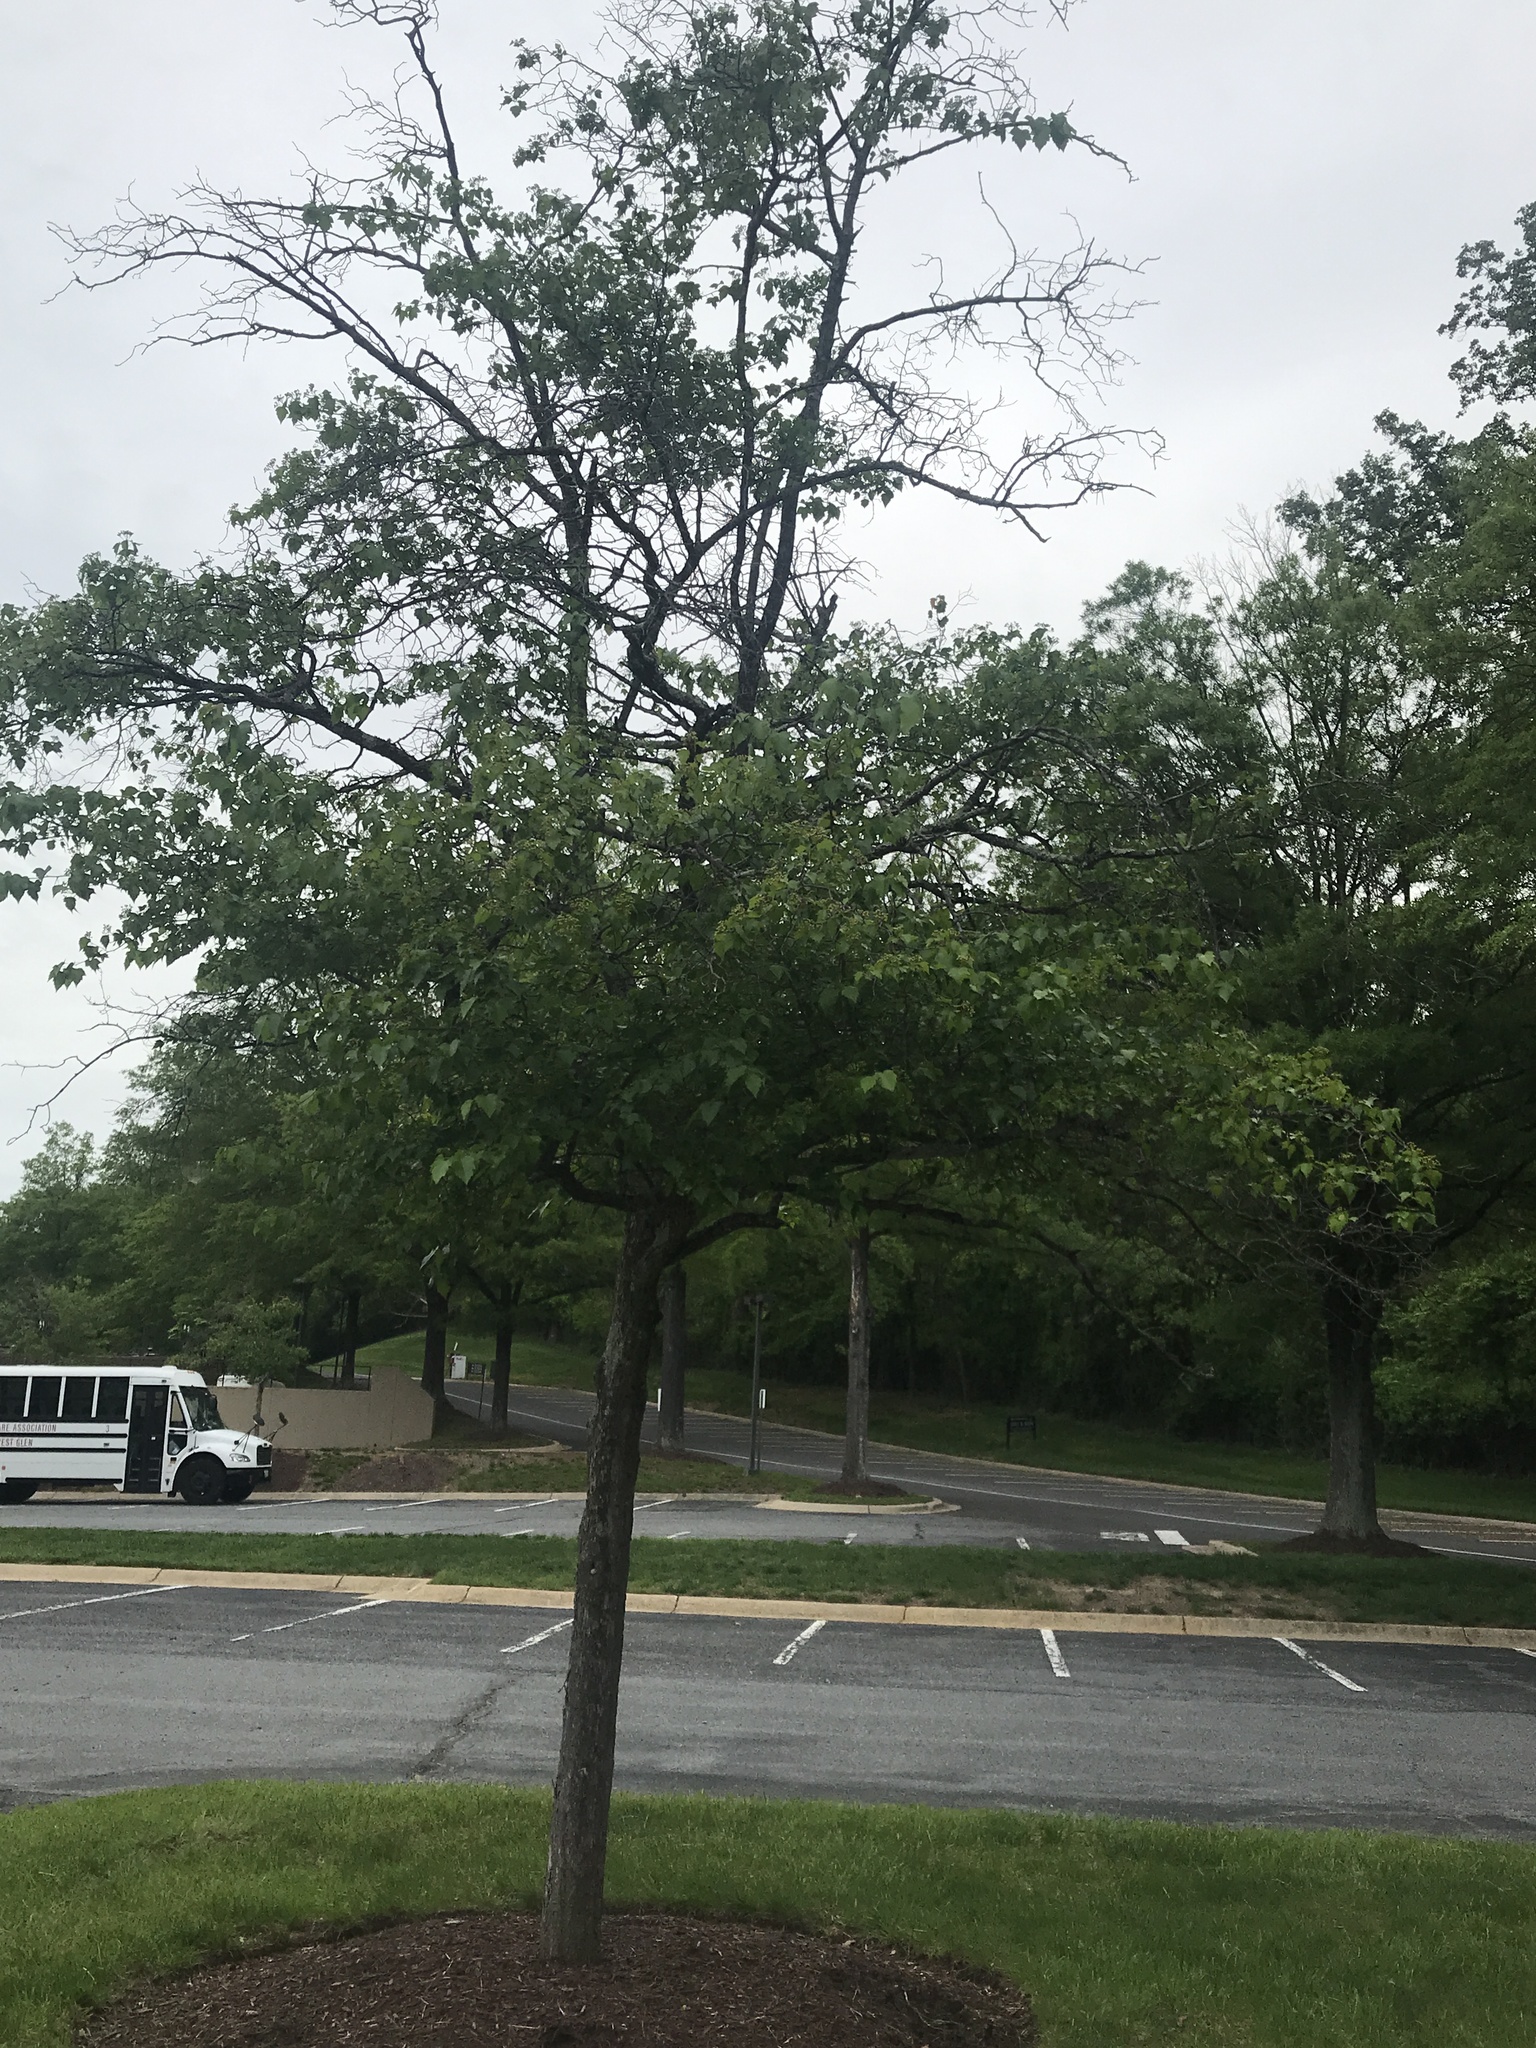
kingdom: Plantae
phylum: Tracheophyta
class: Magnoliopsida
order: Sapindales
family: Sapindaceae
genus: Acer
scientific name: Acer tataricum
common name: Tartar maple
